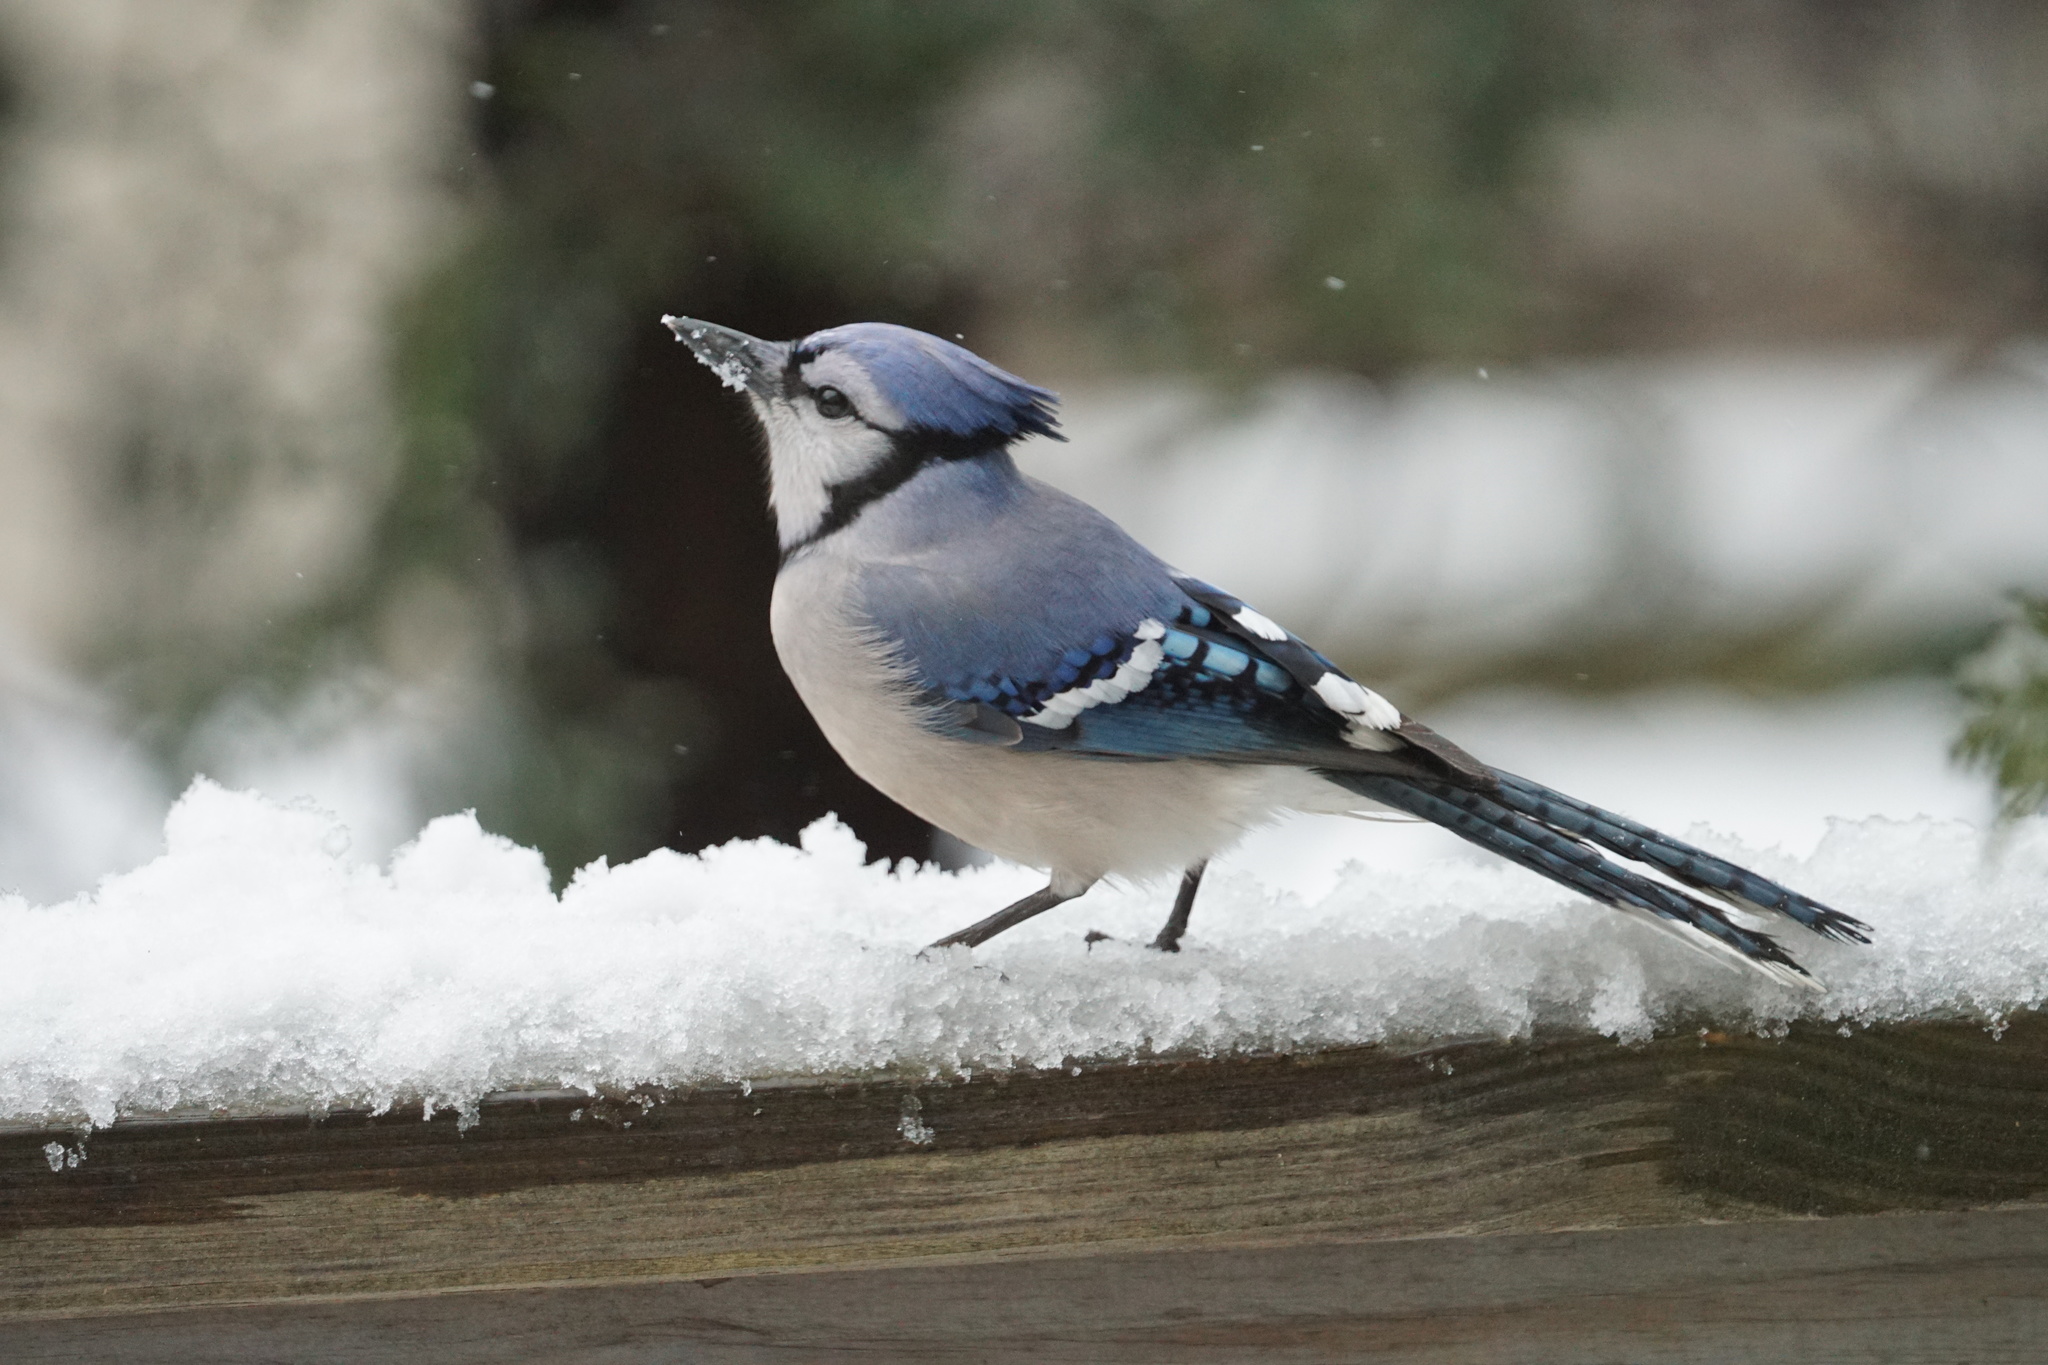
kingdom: Animalia
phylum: Chordata
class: Aves
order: Passeriformes
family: Corvidae
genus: Cyanocitta
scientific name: Cyanocitta cristata
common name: Blue jay
